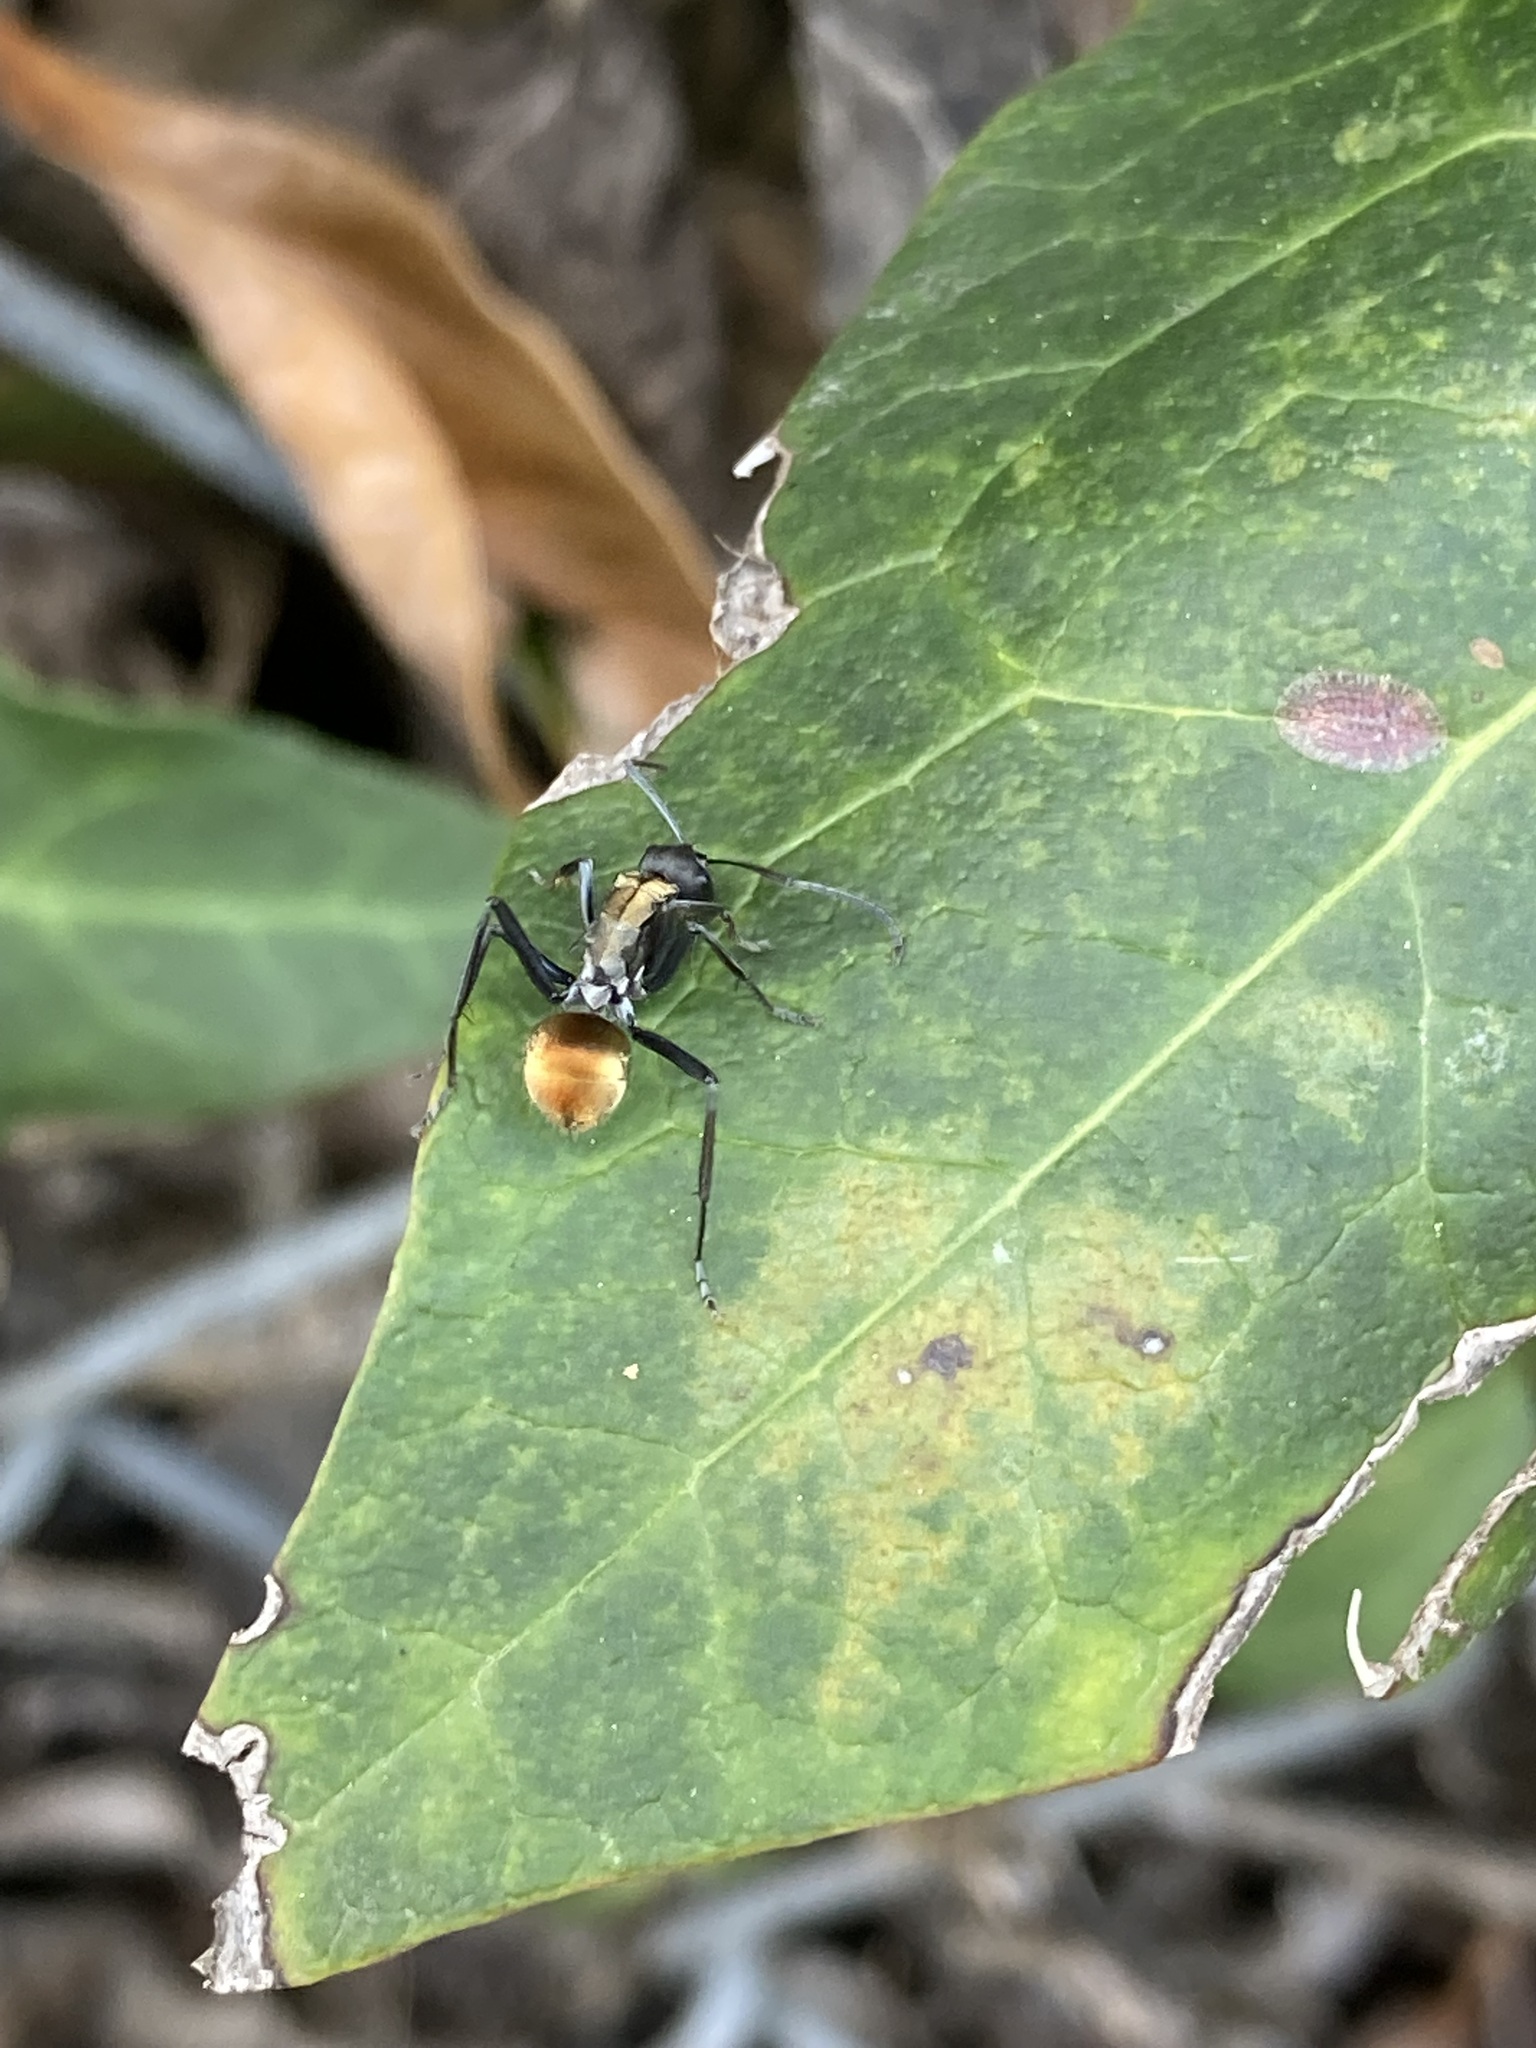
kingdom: Animalia
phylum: Arthropoda
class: Insecta
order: Hymenoptera
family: Formicidae
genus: Polyrhachis
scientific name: Polyrhachis ammon
